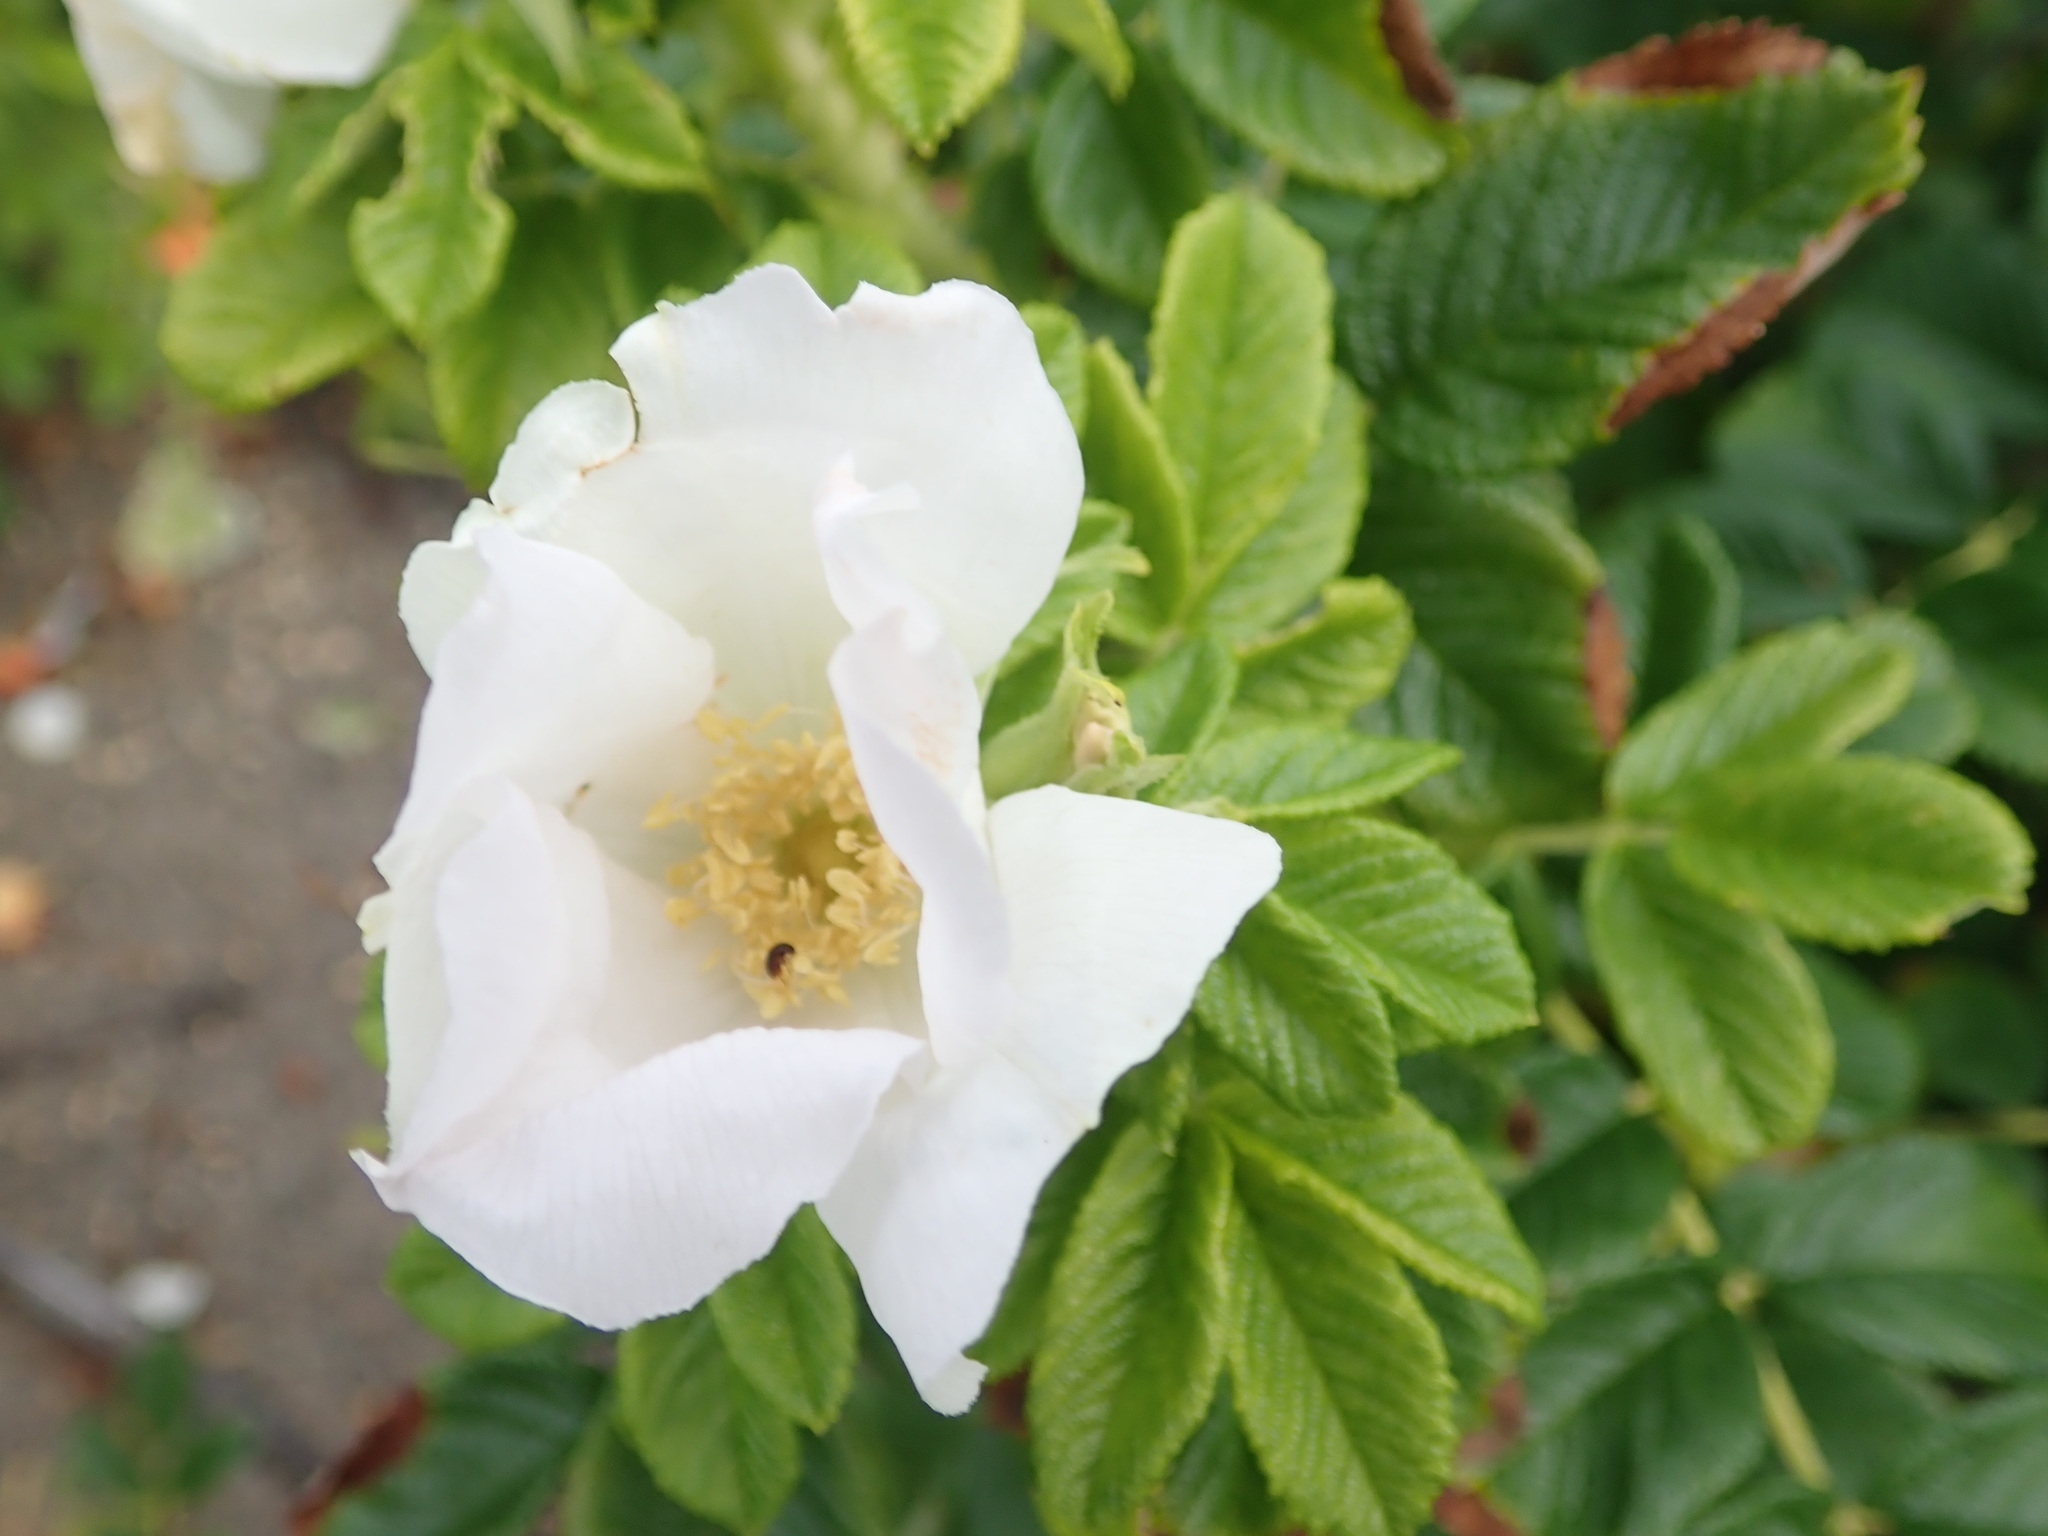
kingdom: Plantae
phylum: Tracheophyta
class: Magnoliopsida
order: Rosales
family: Rosaceae
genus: Rosa
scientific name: Rosa rugosa
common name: Japanese rose
